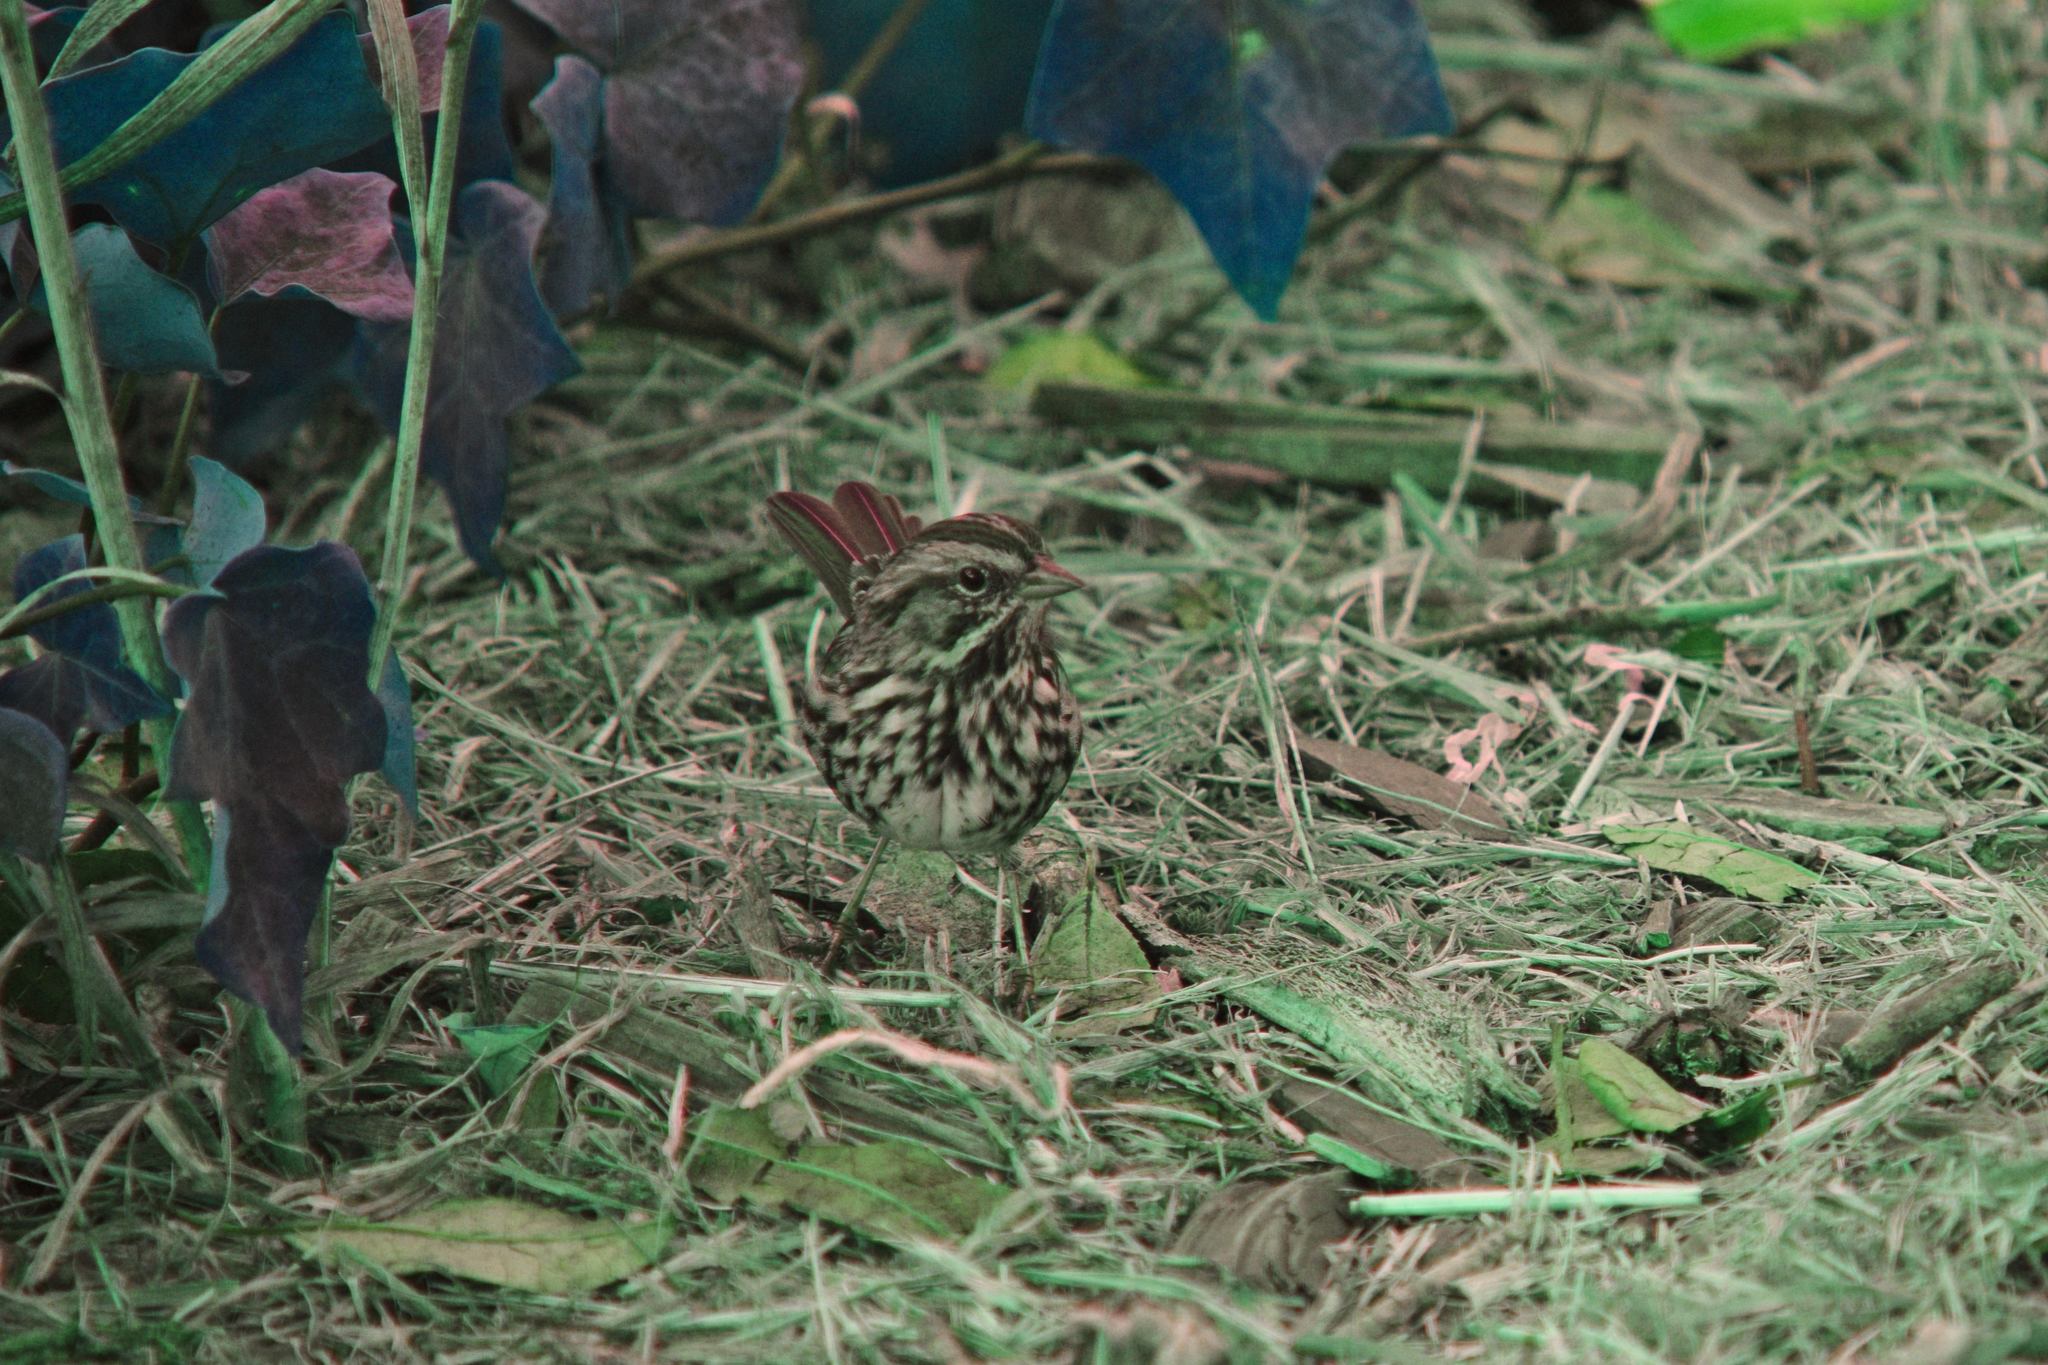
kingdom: Animalia
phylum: Chordata
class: Aves
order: Passeriformes
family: Passerellidae
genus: Melospiza
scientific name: Melospiza melodia
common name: Song sparrow
